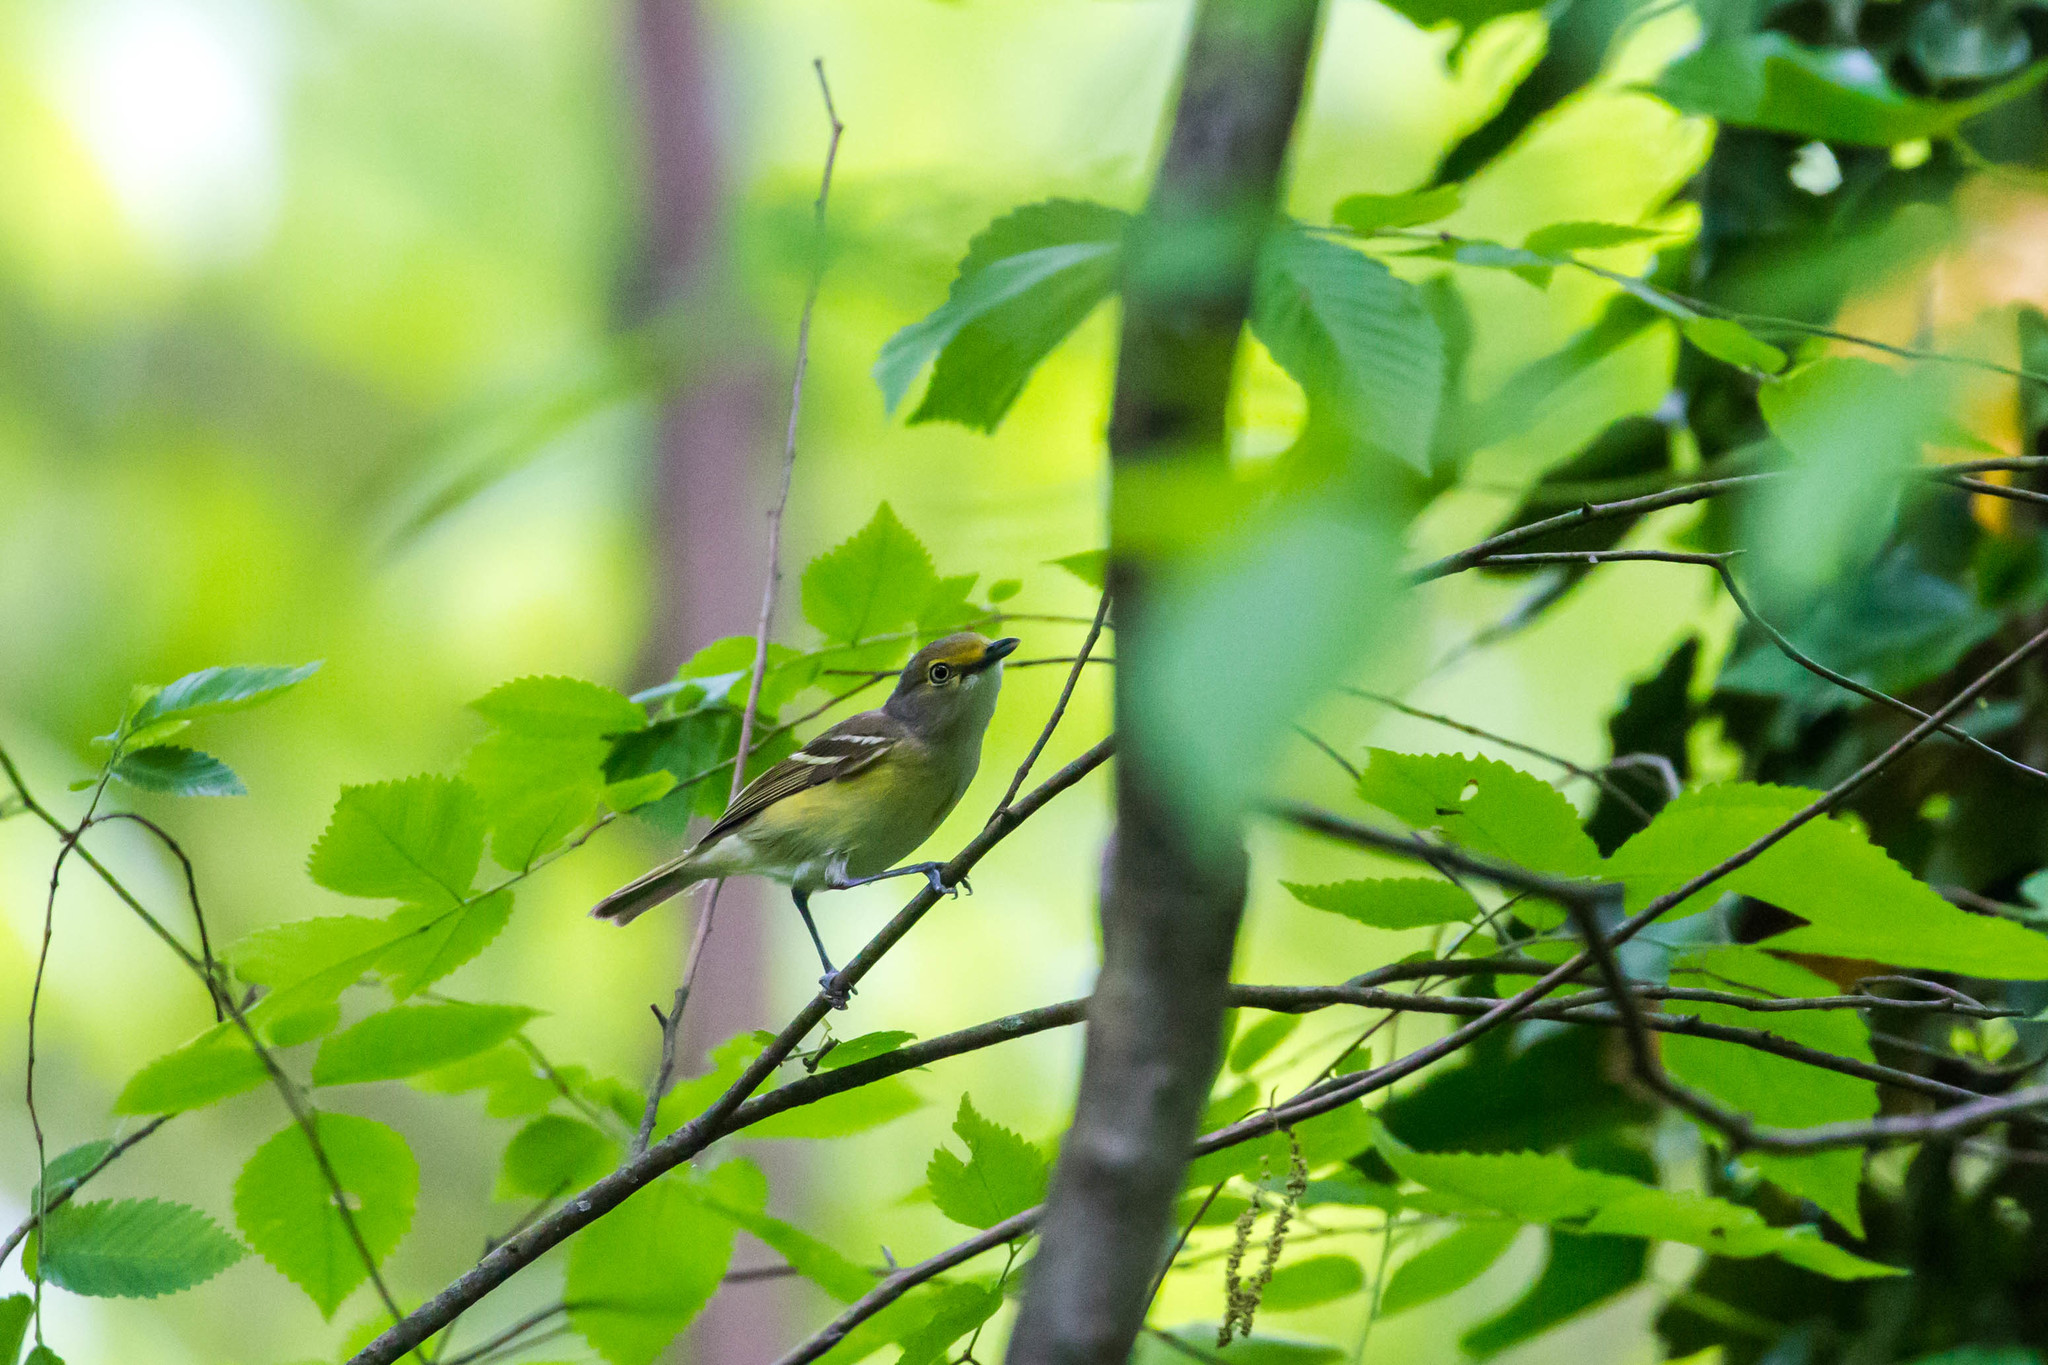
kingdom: Animalia
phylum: Chordata
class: Aves
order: Passeriformes
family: Vireonidae
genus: Vireo
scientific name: Vireo griseus
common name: White-eyed vireo
